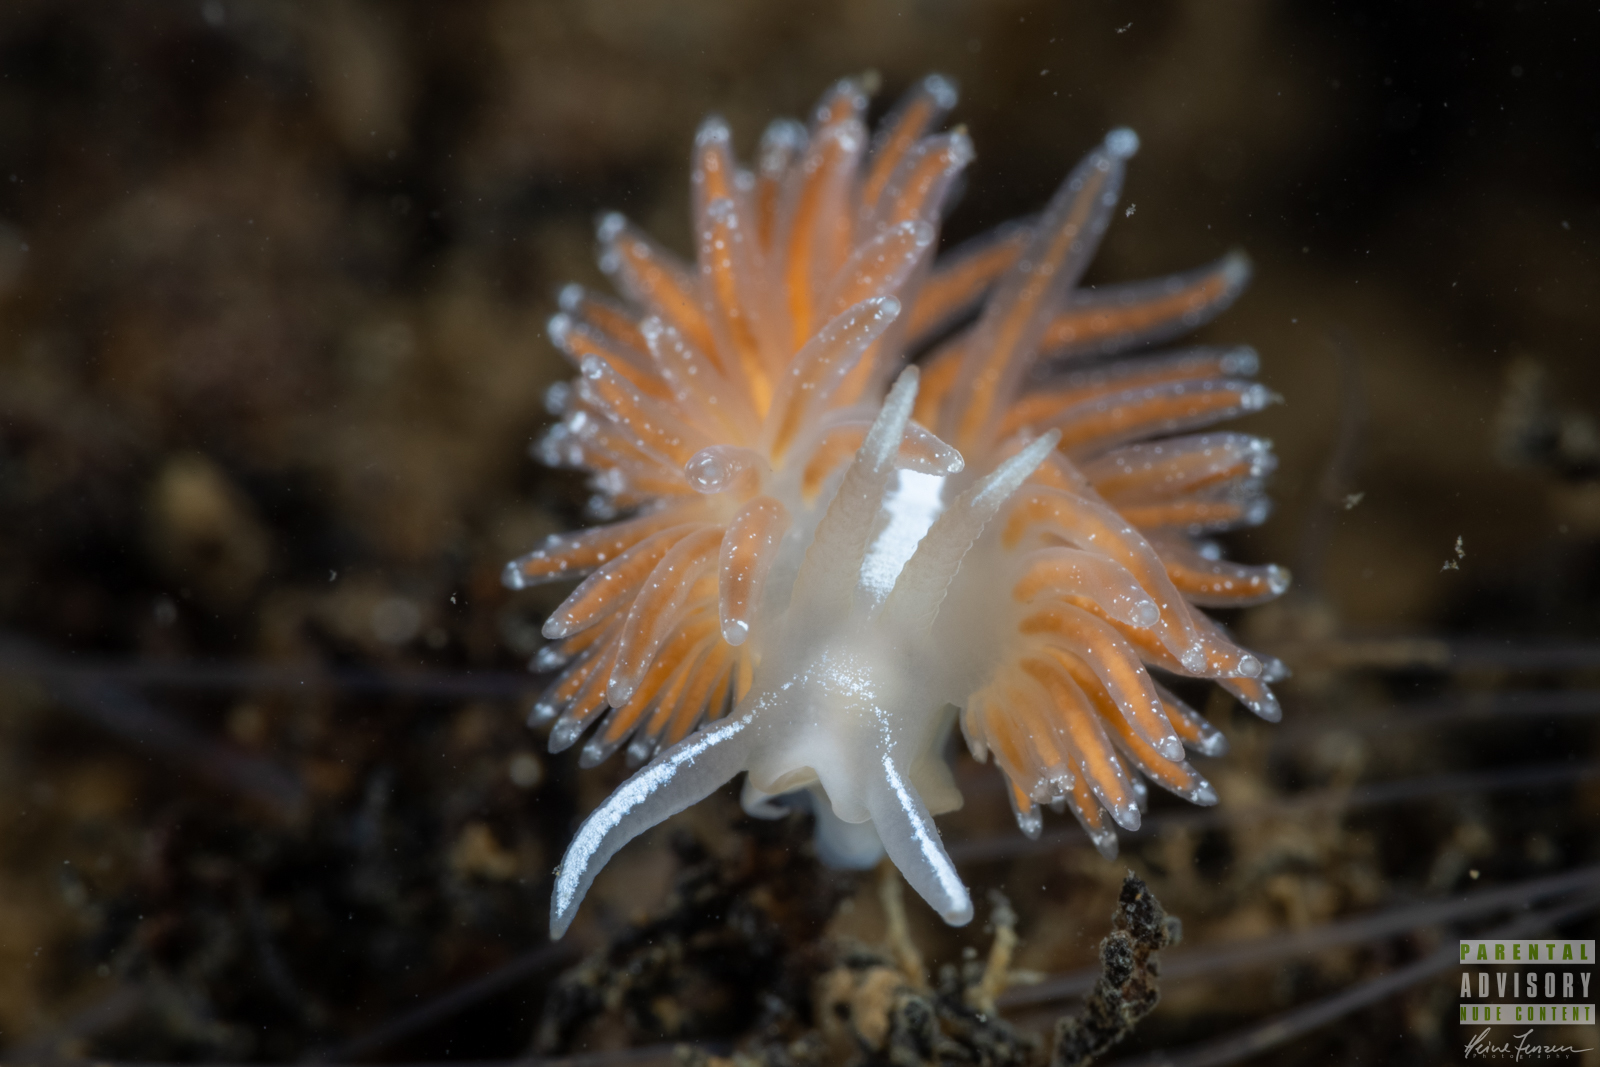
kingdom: Animalia
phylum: Mollusca
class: Gastropoda
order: Nudibranchia
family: Coryphellidae
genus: Coryphella
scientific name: Coryphella orjani
